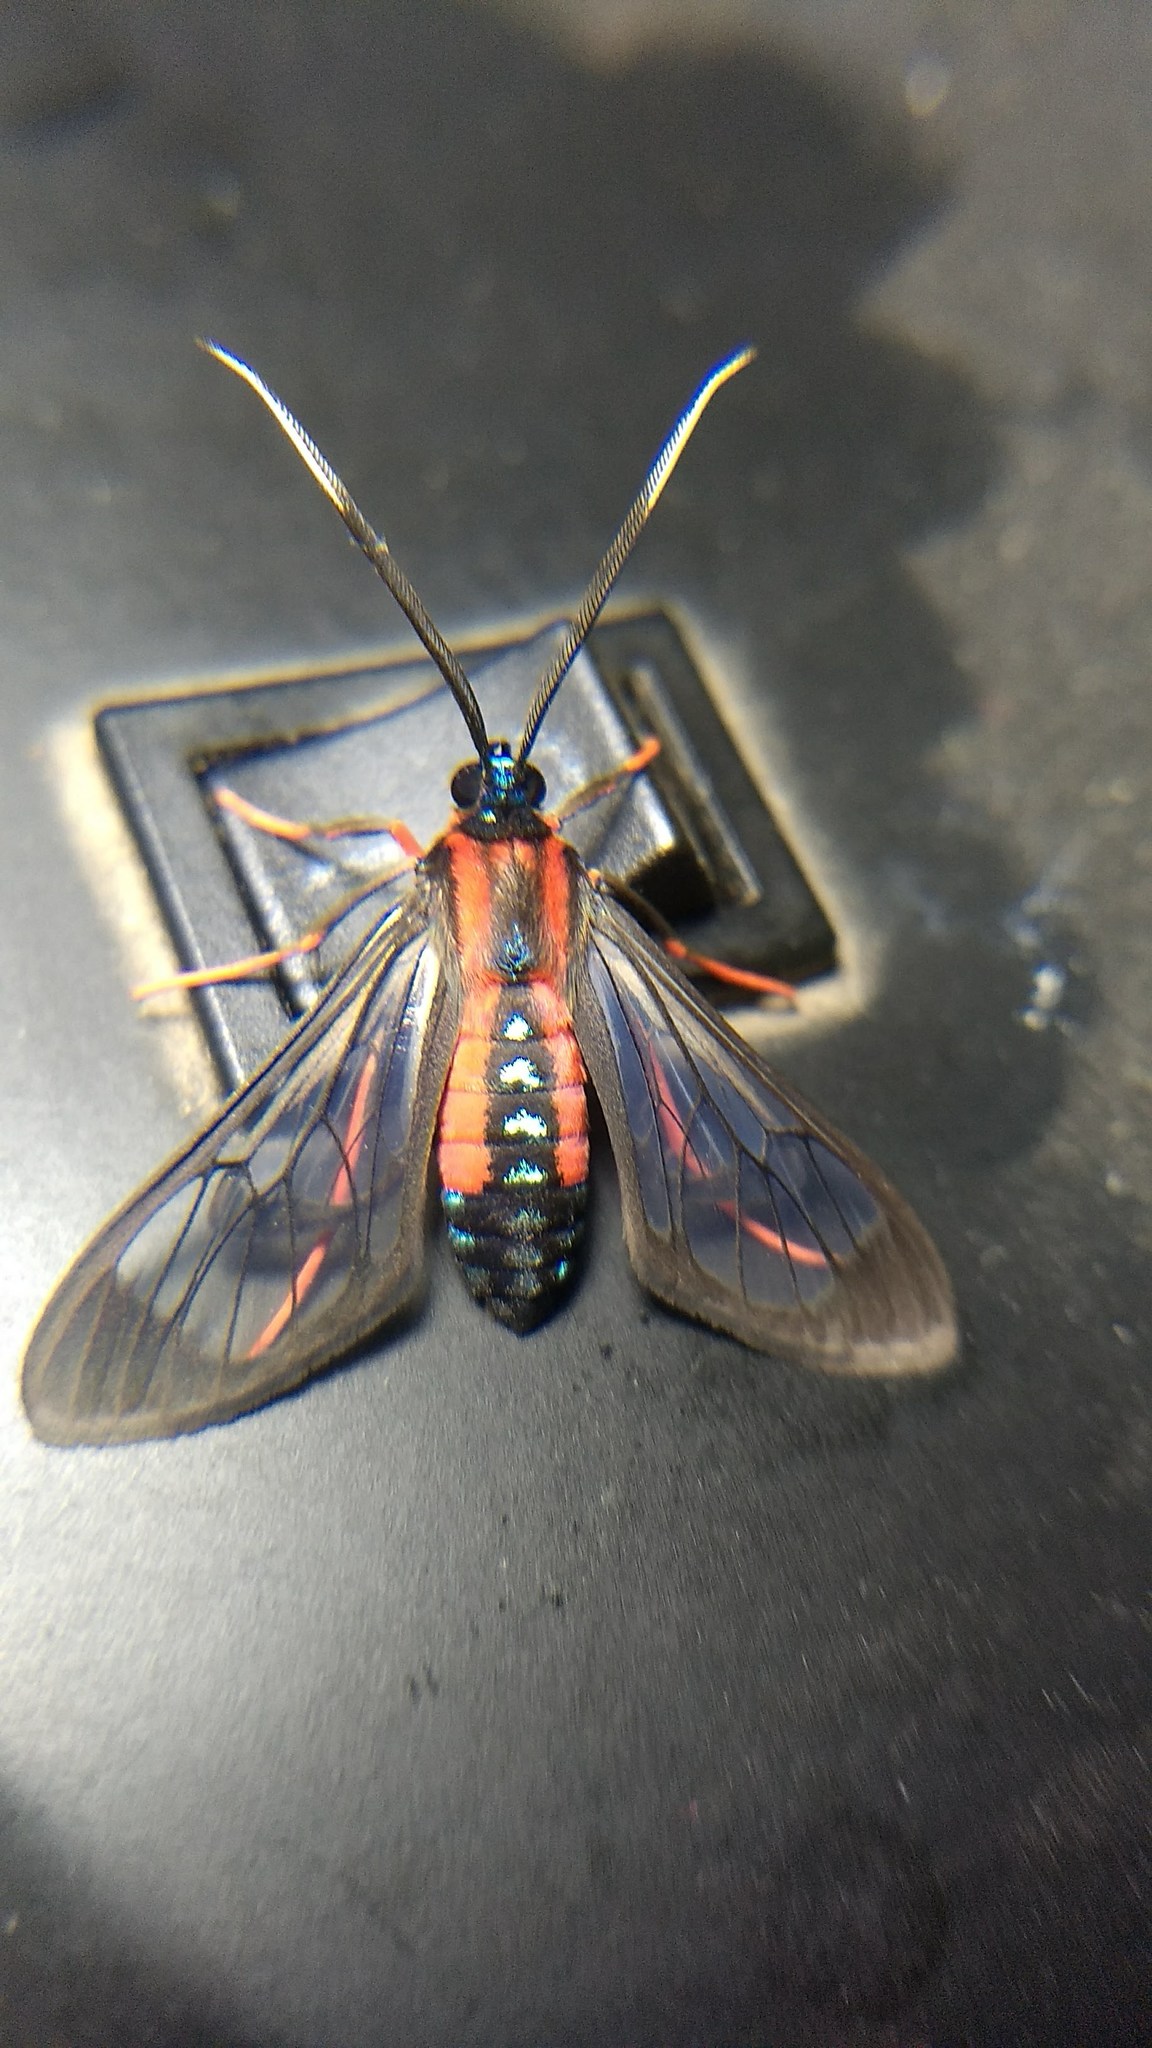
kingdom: Animalia
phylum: Arthropoda
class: Insecta
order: Lepidoptera
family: Erebidae
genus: Cosmosoma
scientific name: Cosmosoma auge
